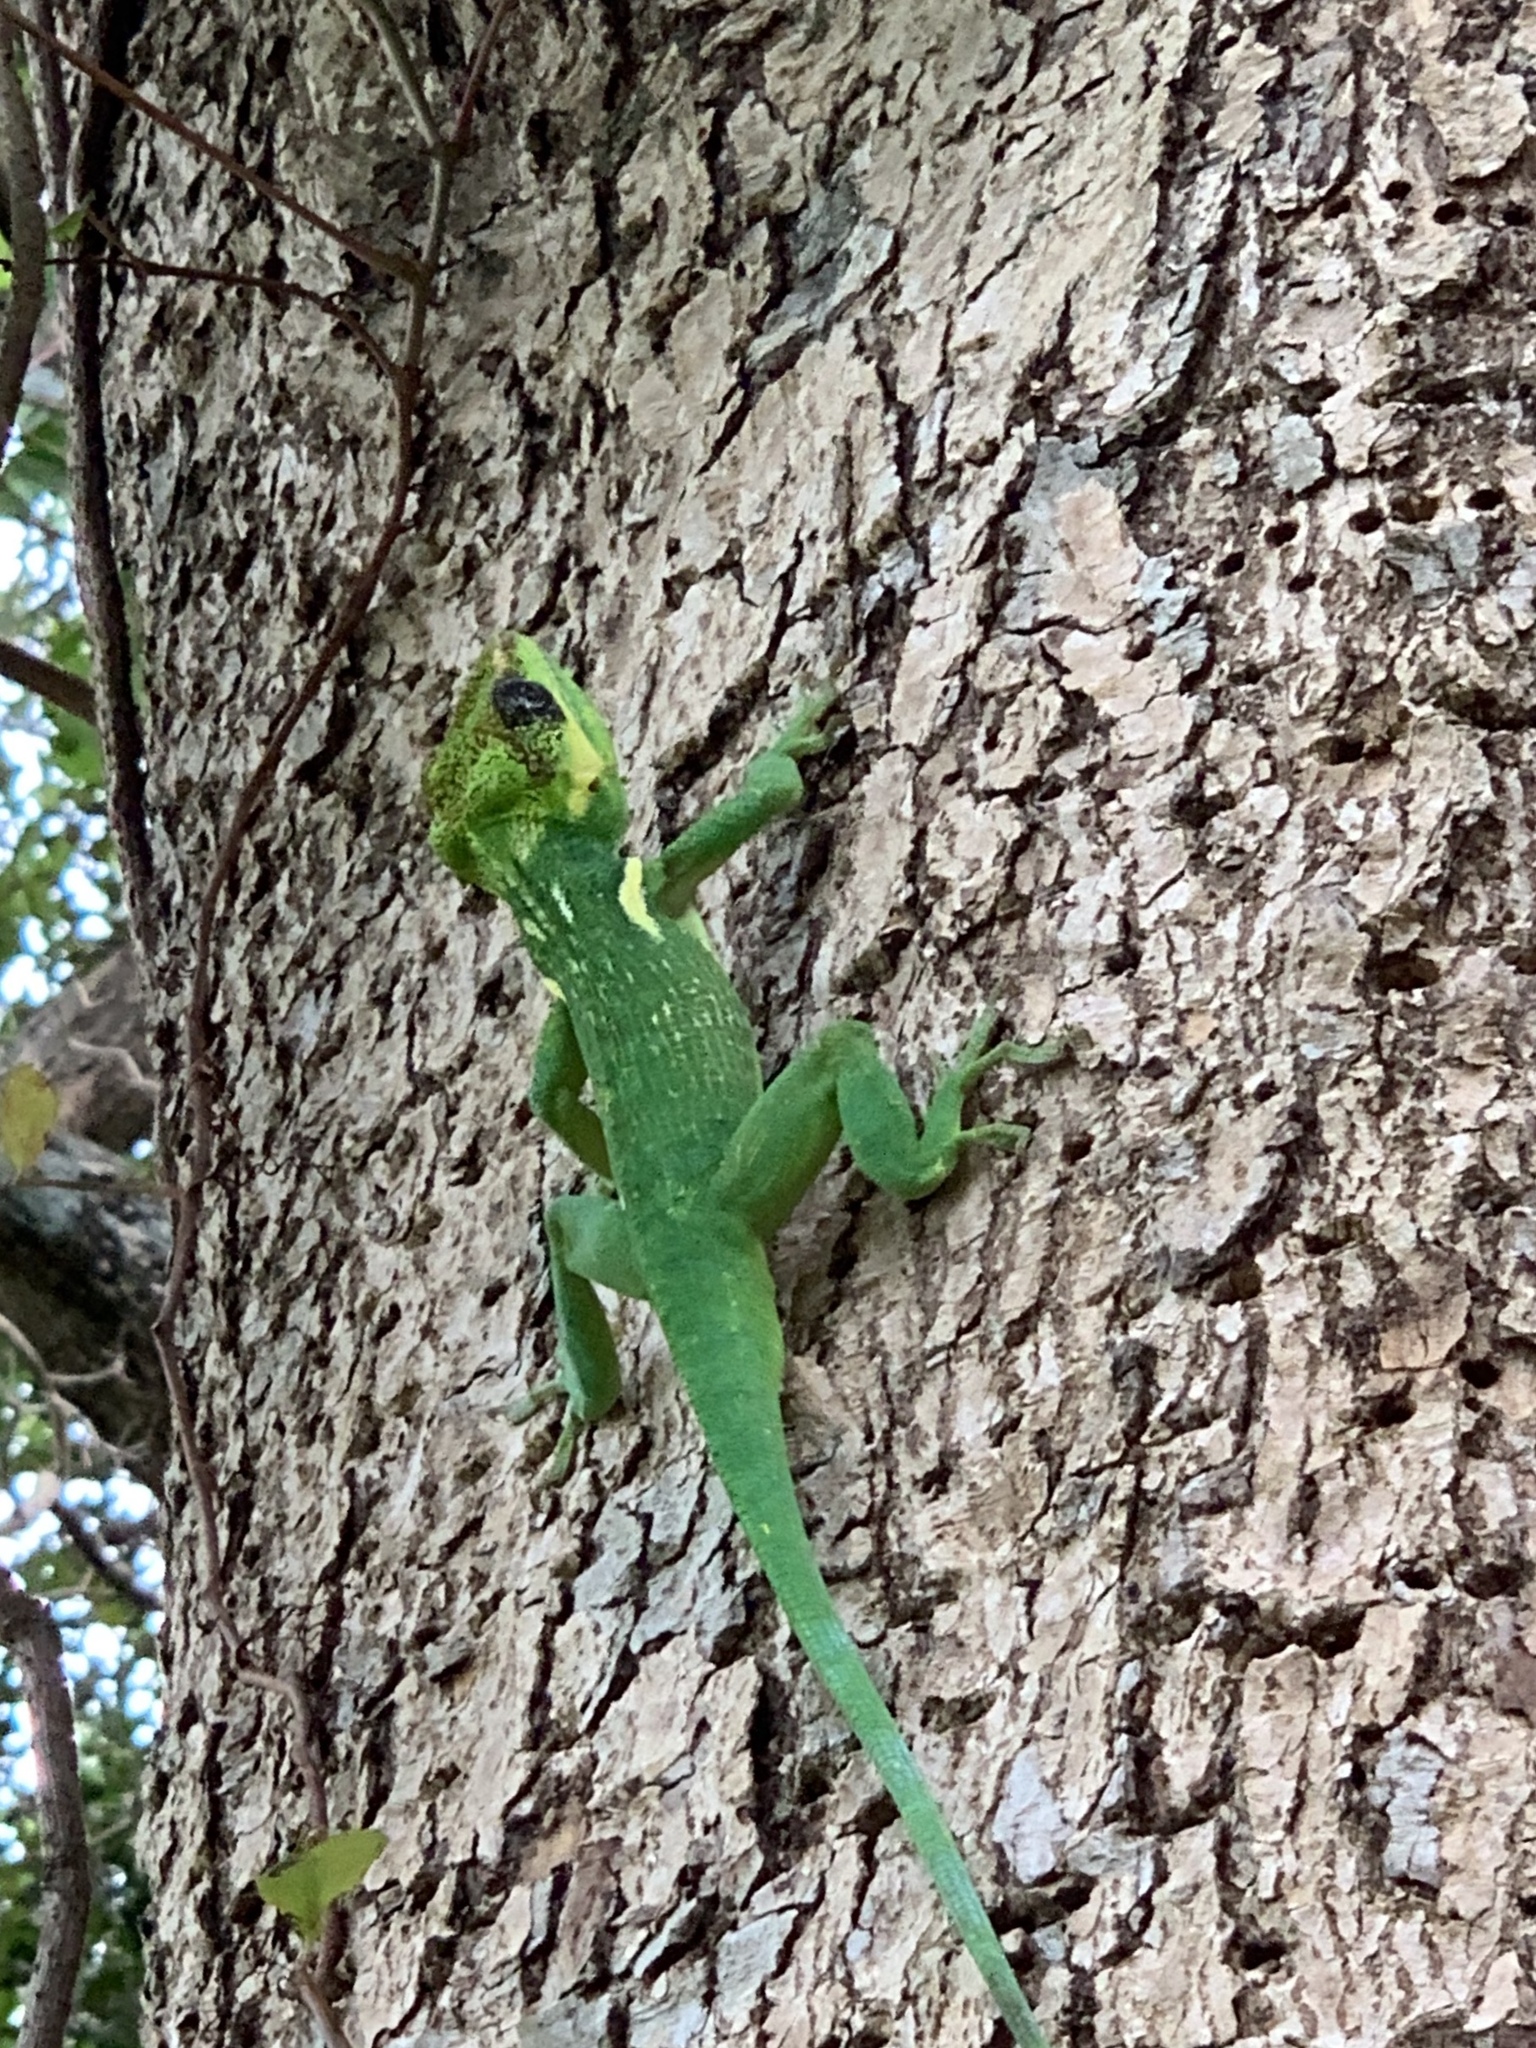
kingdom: Animalia
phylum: Chordata
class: Squamata
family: Dactyloidae
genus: Anolis
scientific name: Anolis equestris
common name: Knight anole
